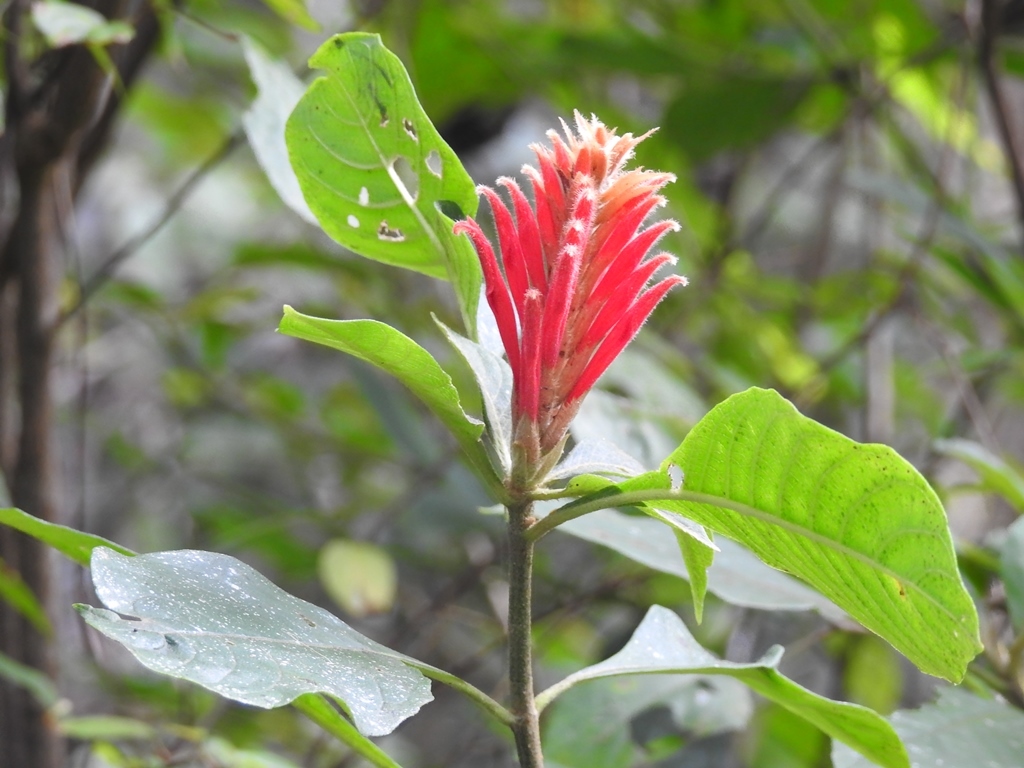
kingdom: Plantae
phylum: Tracheophyta
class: Magnoliopsida
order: Lamiales
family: Acanthaceae
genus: Aphelandra
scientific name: Aphelandra scabra
